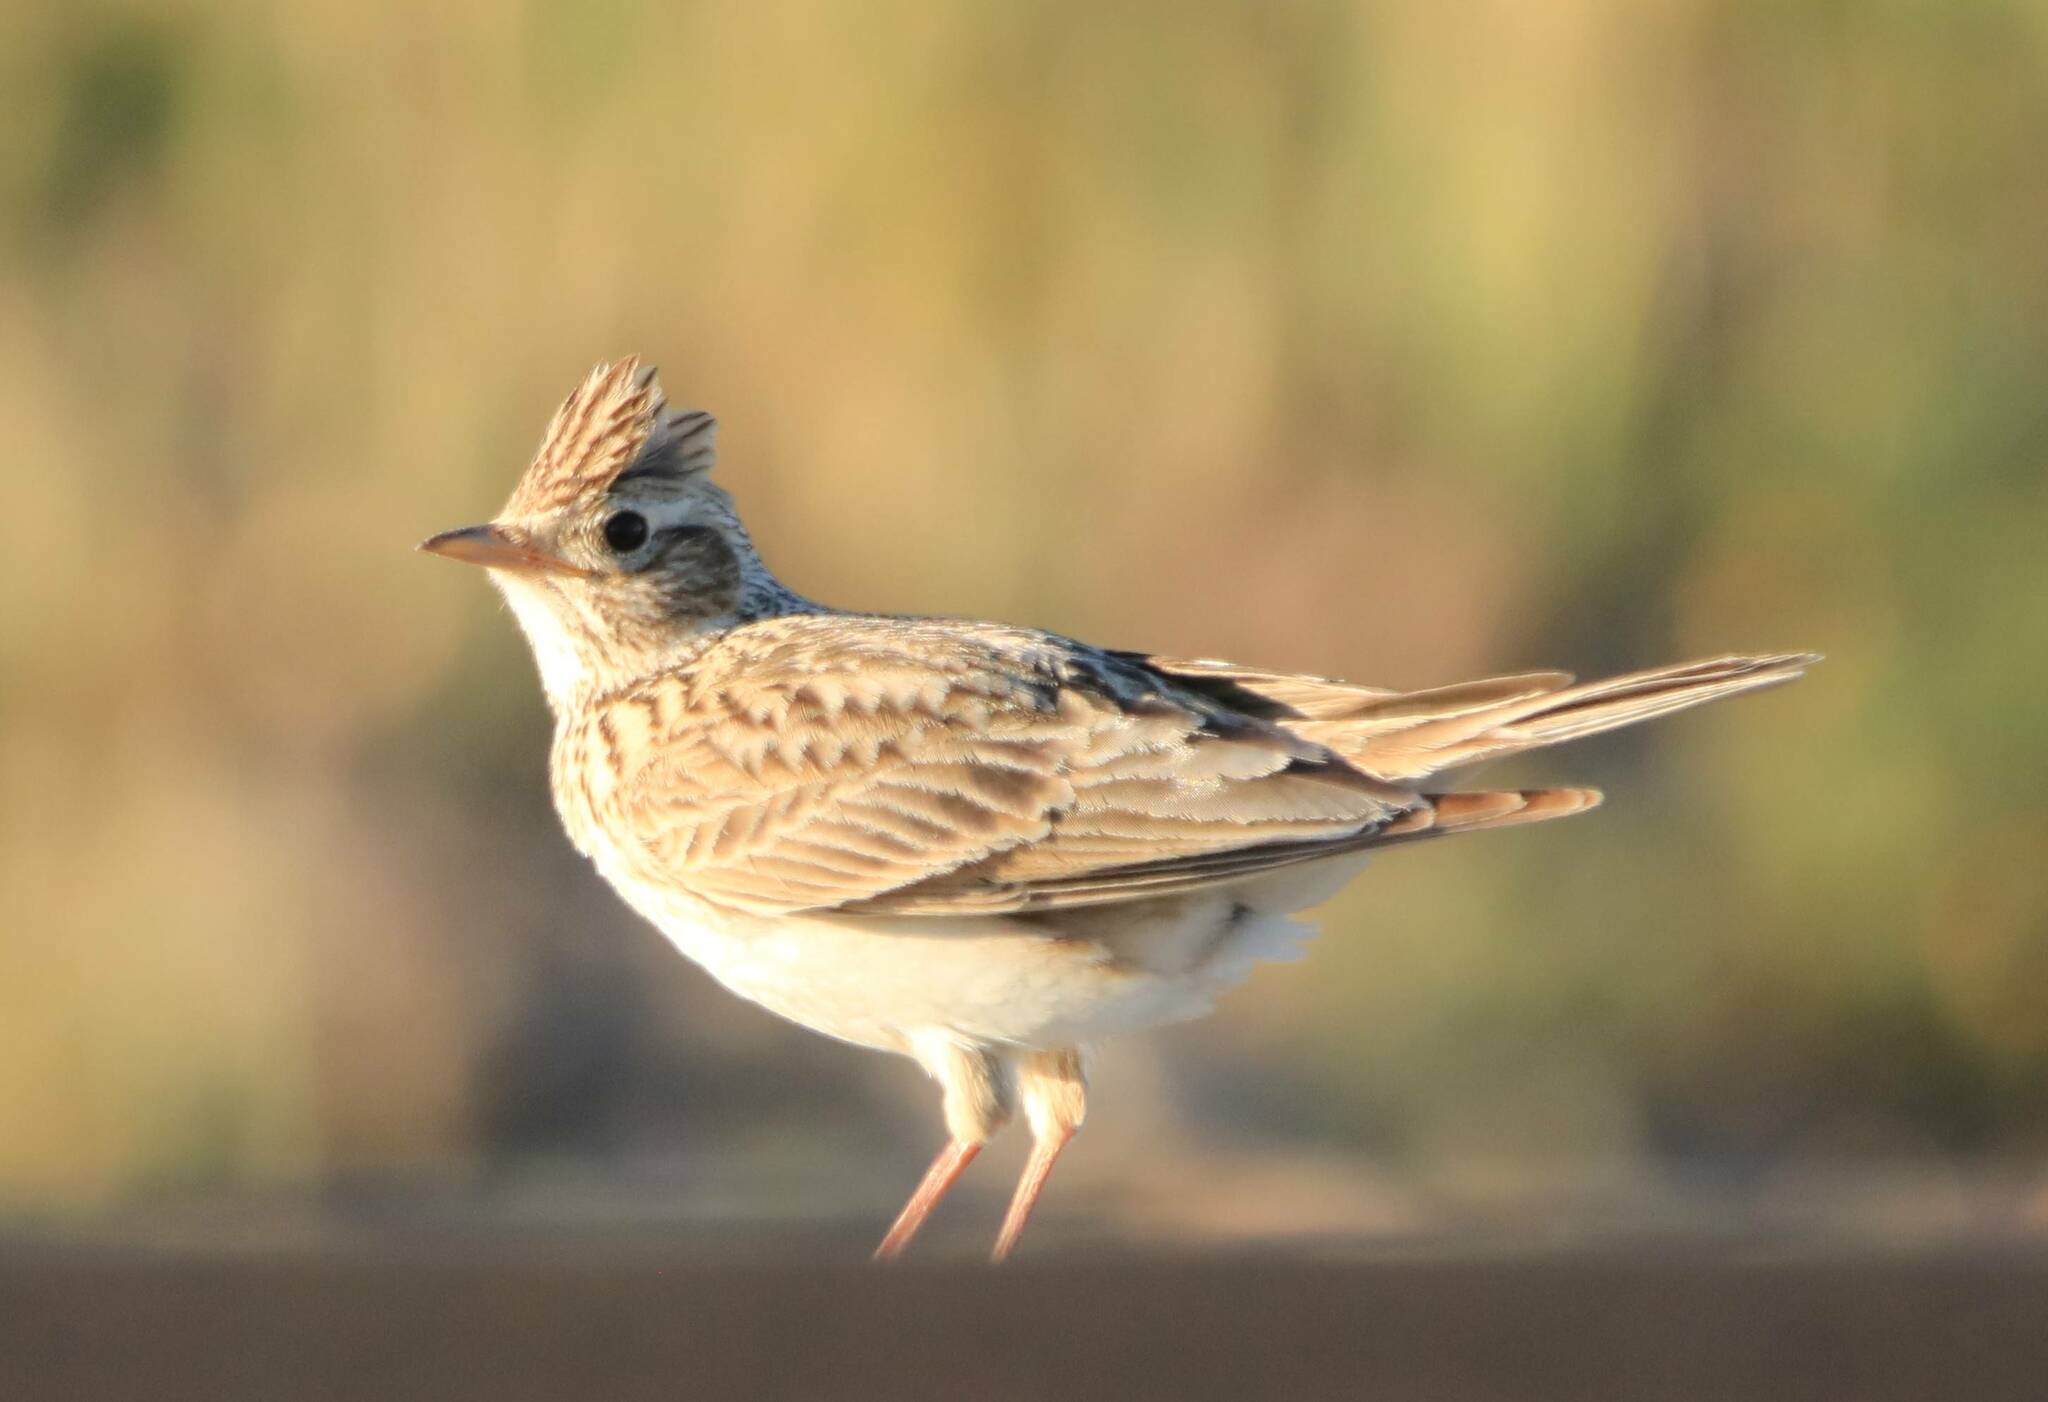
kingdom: Animalia
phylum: Chordata
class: Aves
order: Passeriformes
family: Alaudidae
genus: Alauda
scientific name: Alauda arvensis
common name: Eurasian skylark
